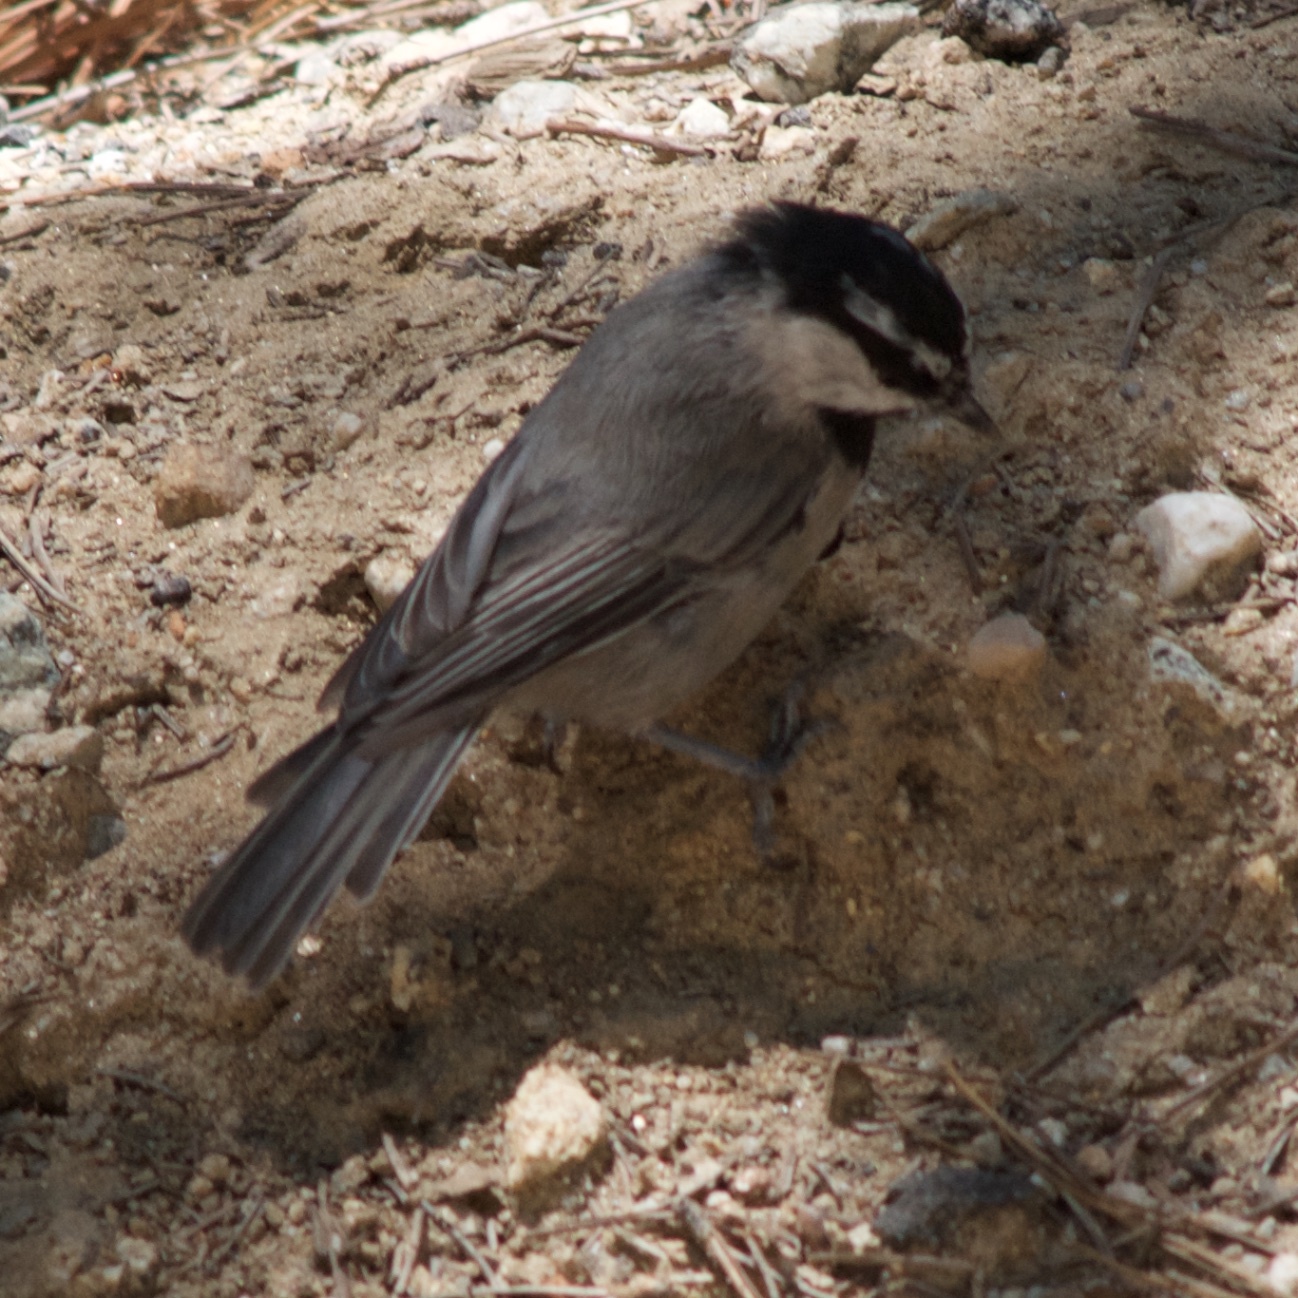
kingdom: Animalia
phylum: Chordata
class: Aves
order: Passeriformes
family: Paridae
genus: Poecile
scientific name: Poecile gambeli
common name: Mountain chickadee
